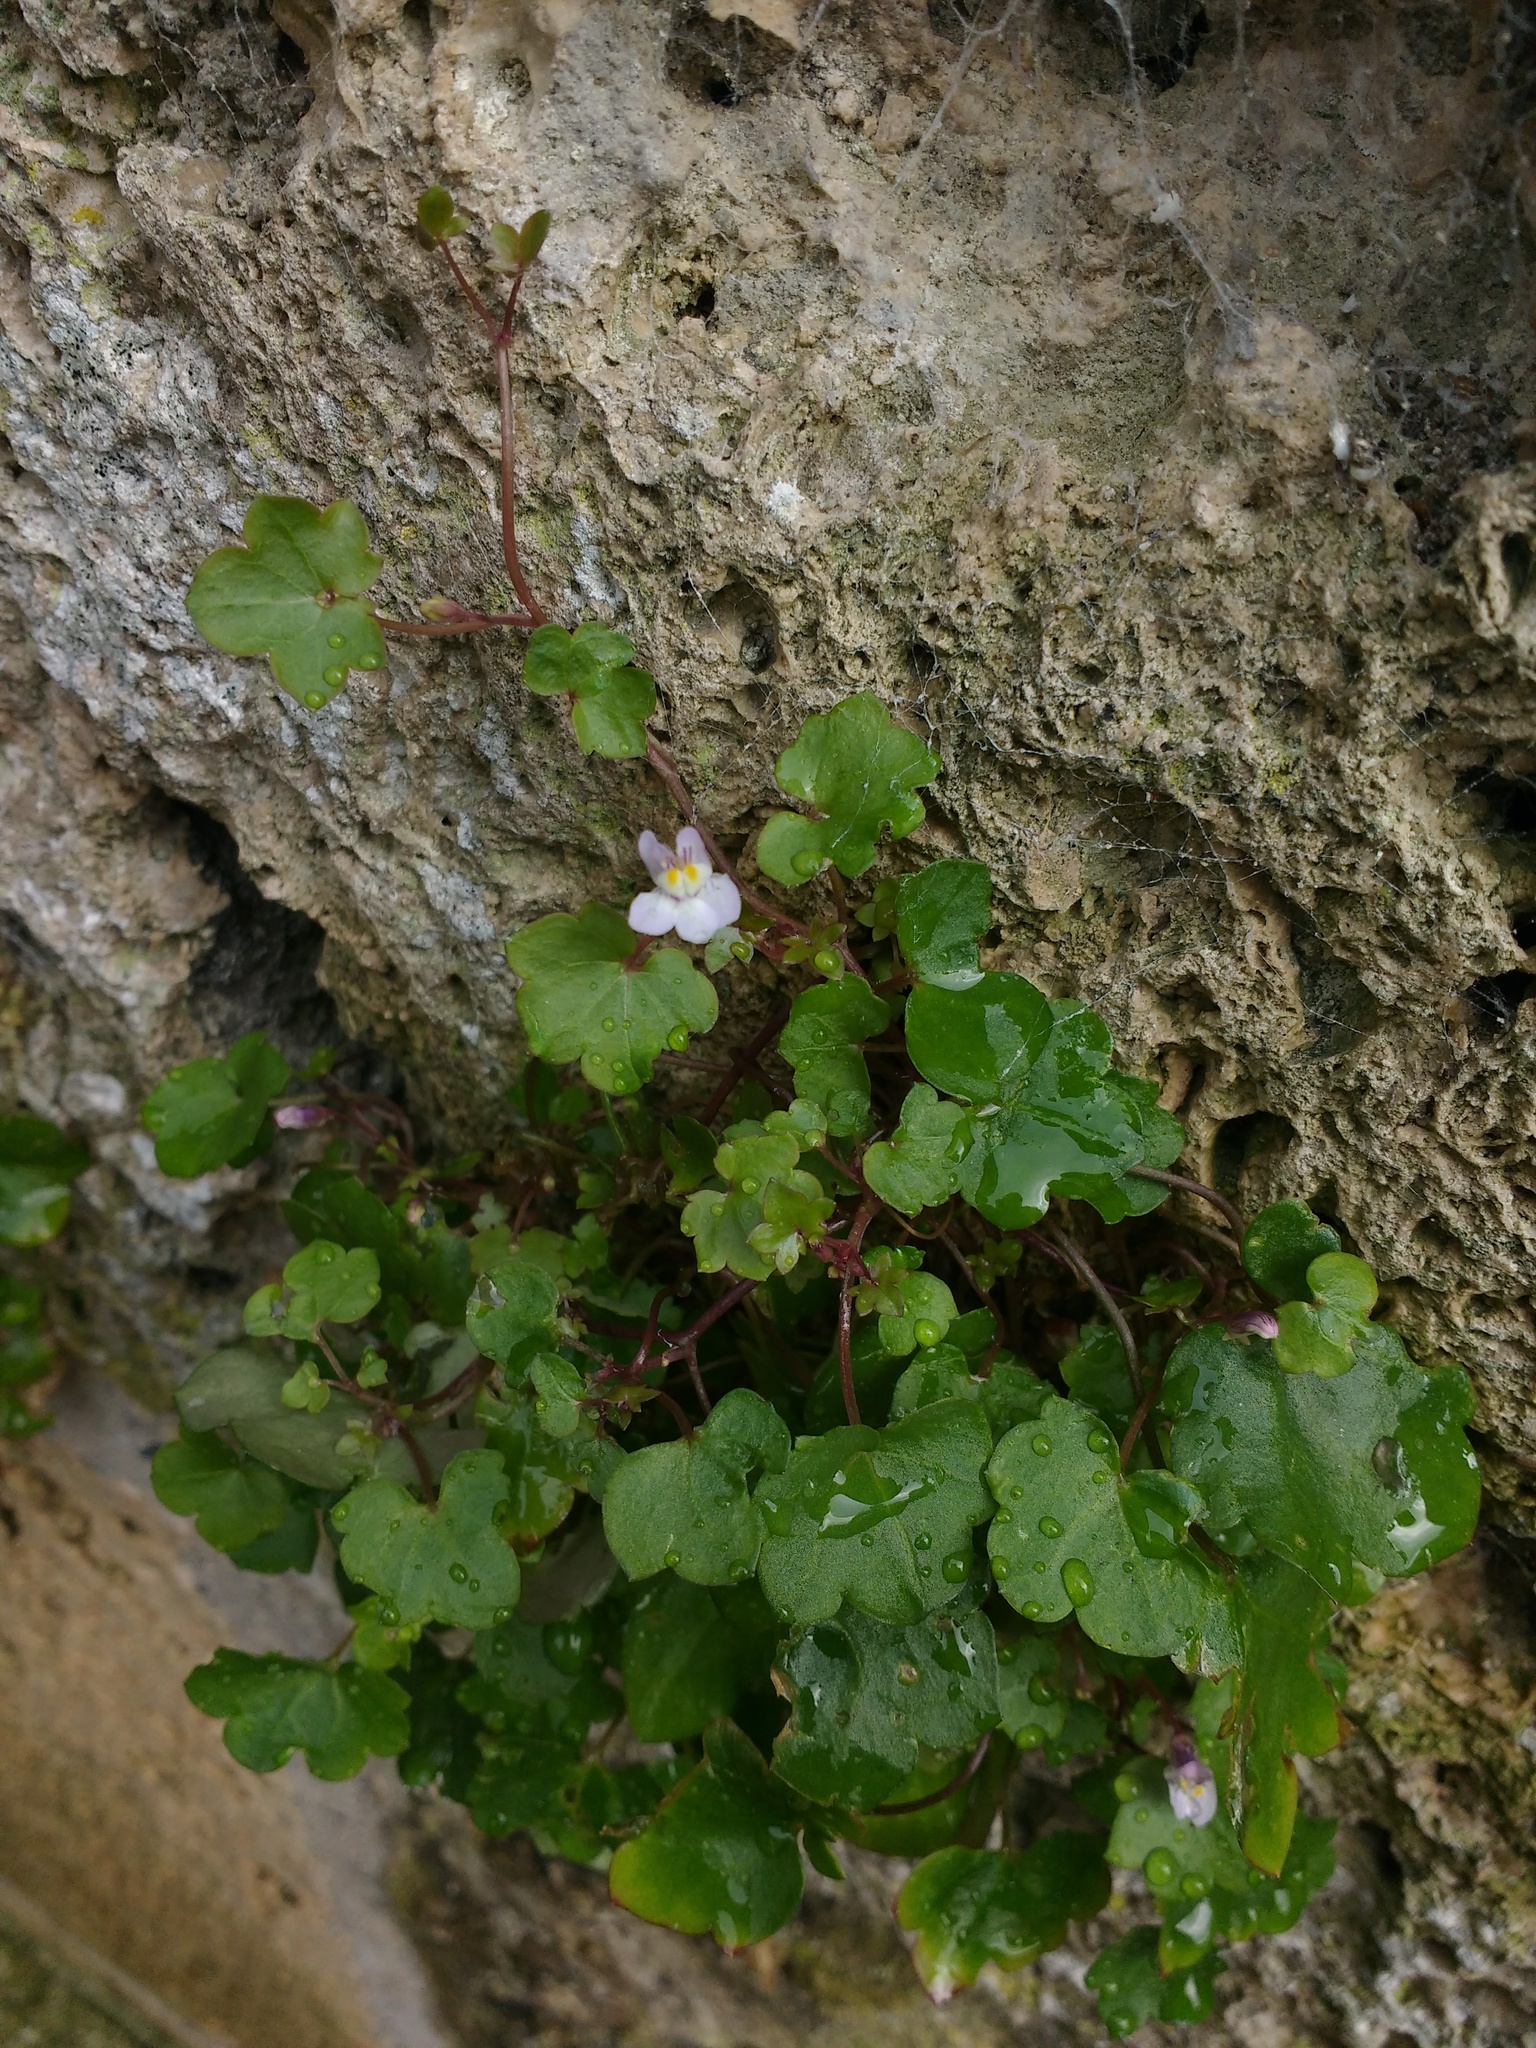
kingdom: Plantae
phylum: Tracheophyta
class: Magnoliopsida
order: Lamiales
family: Plantaginaceae
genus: Cymbalaria
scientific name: Cymbalaria muralis
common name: Ivy-leaved toadflax
